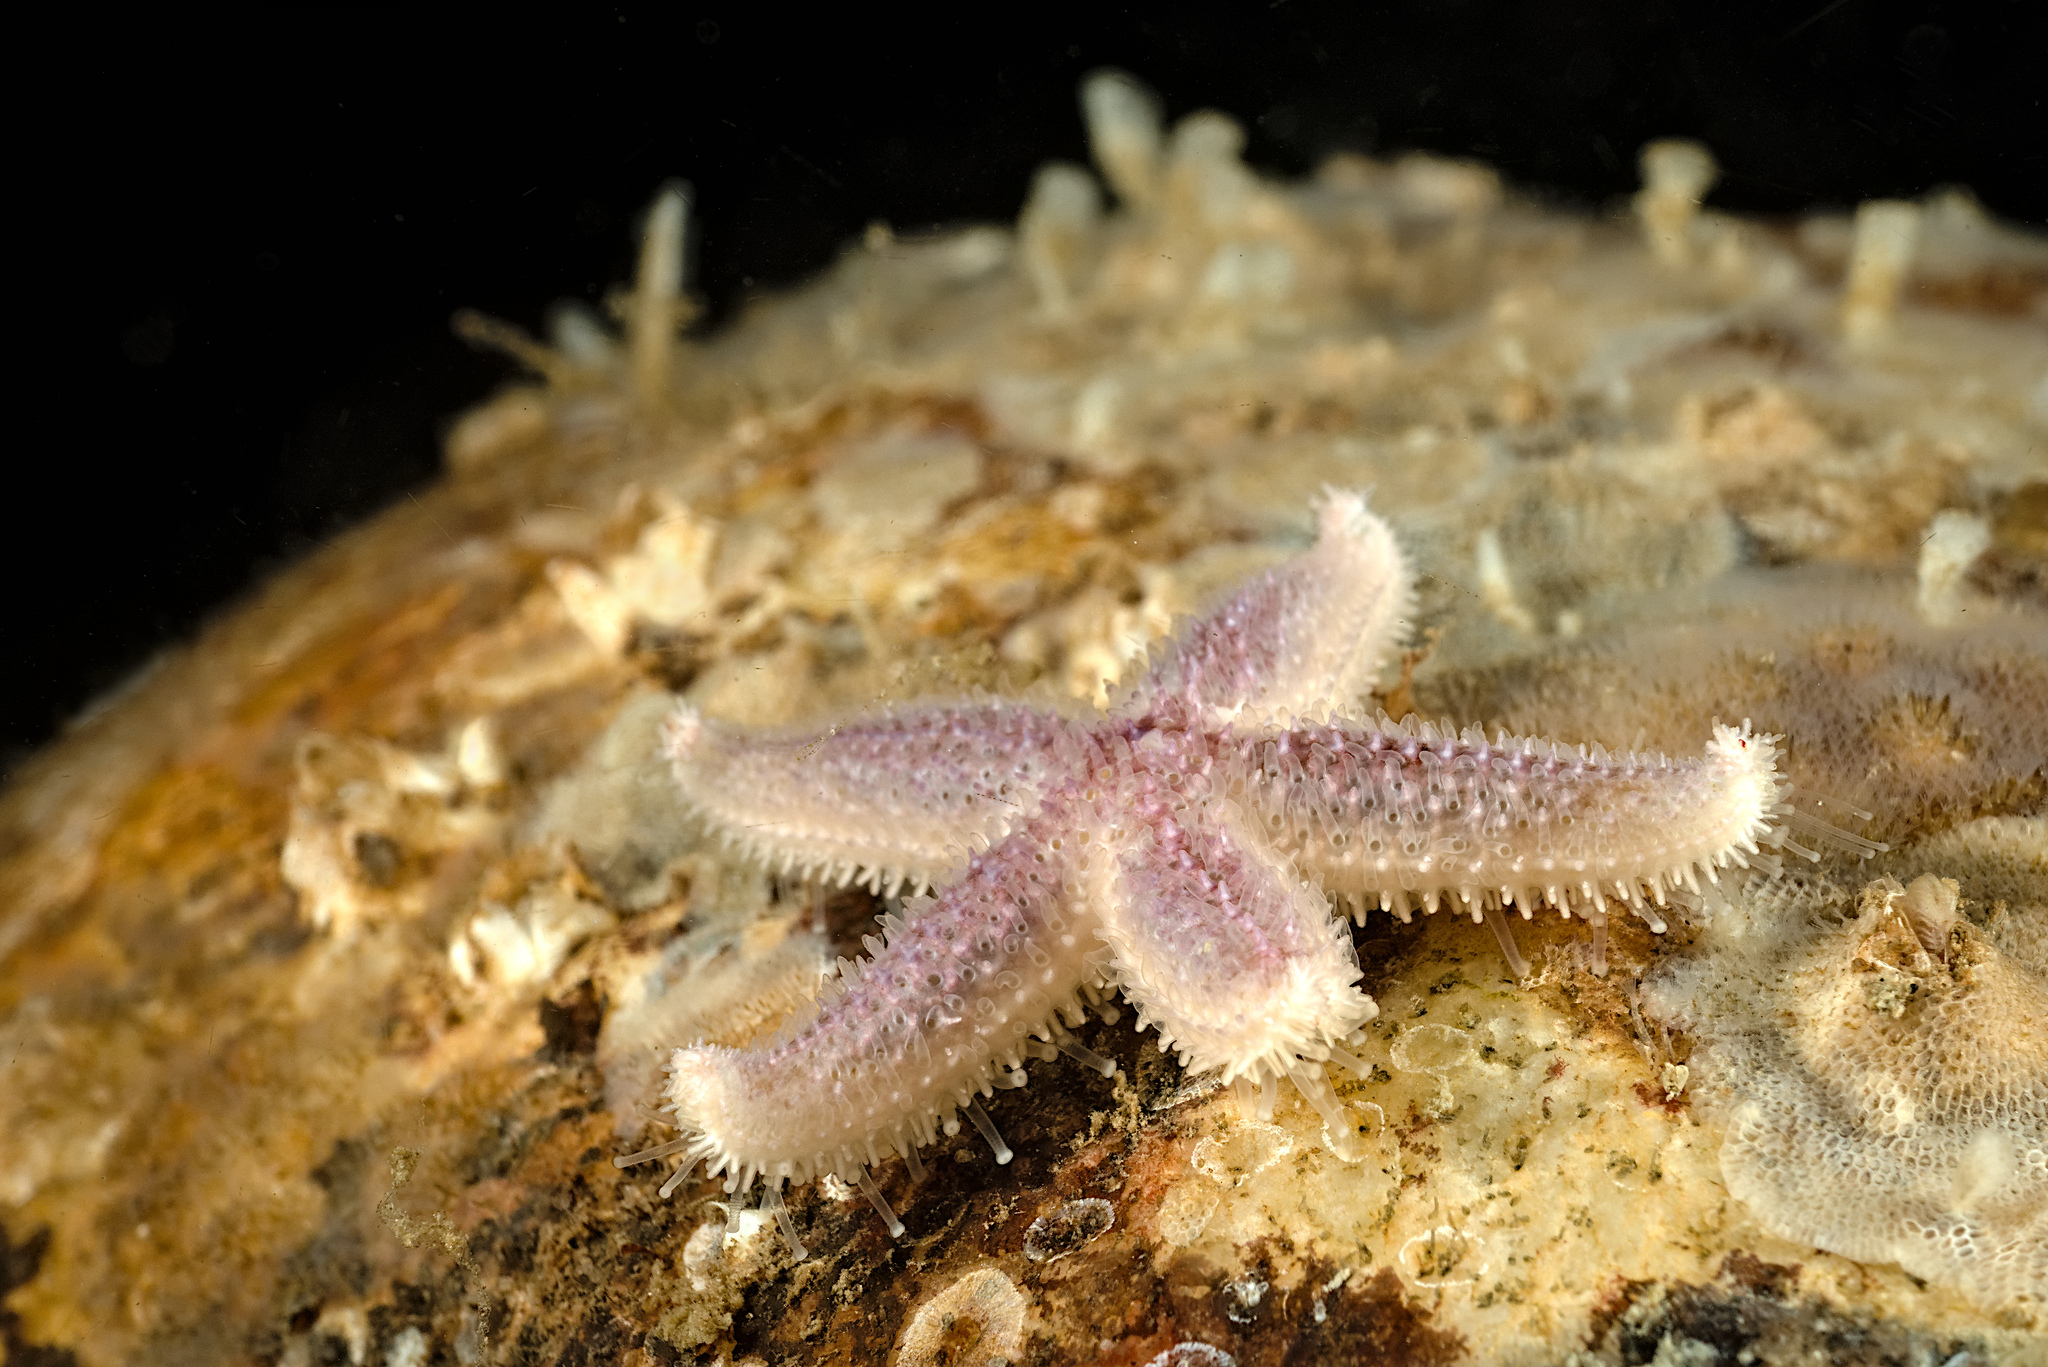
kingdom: Animalia
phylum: Echinodermata
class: Asteroidea
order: Forcipulatida
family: Asteriidae
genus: Asterias
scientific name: Asterias rubens
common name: Common starfish
